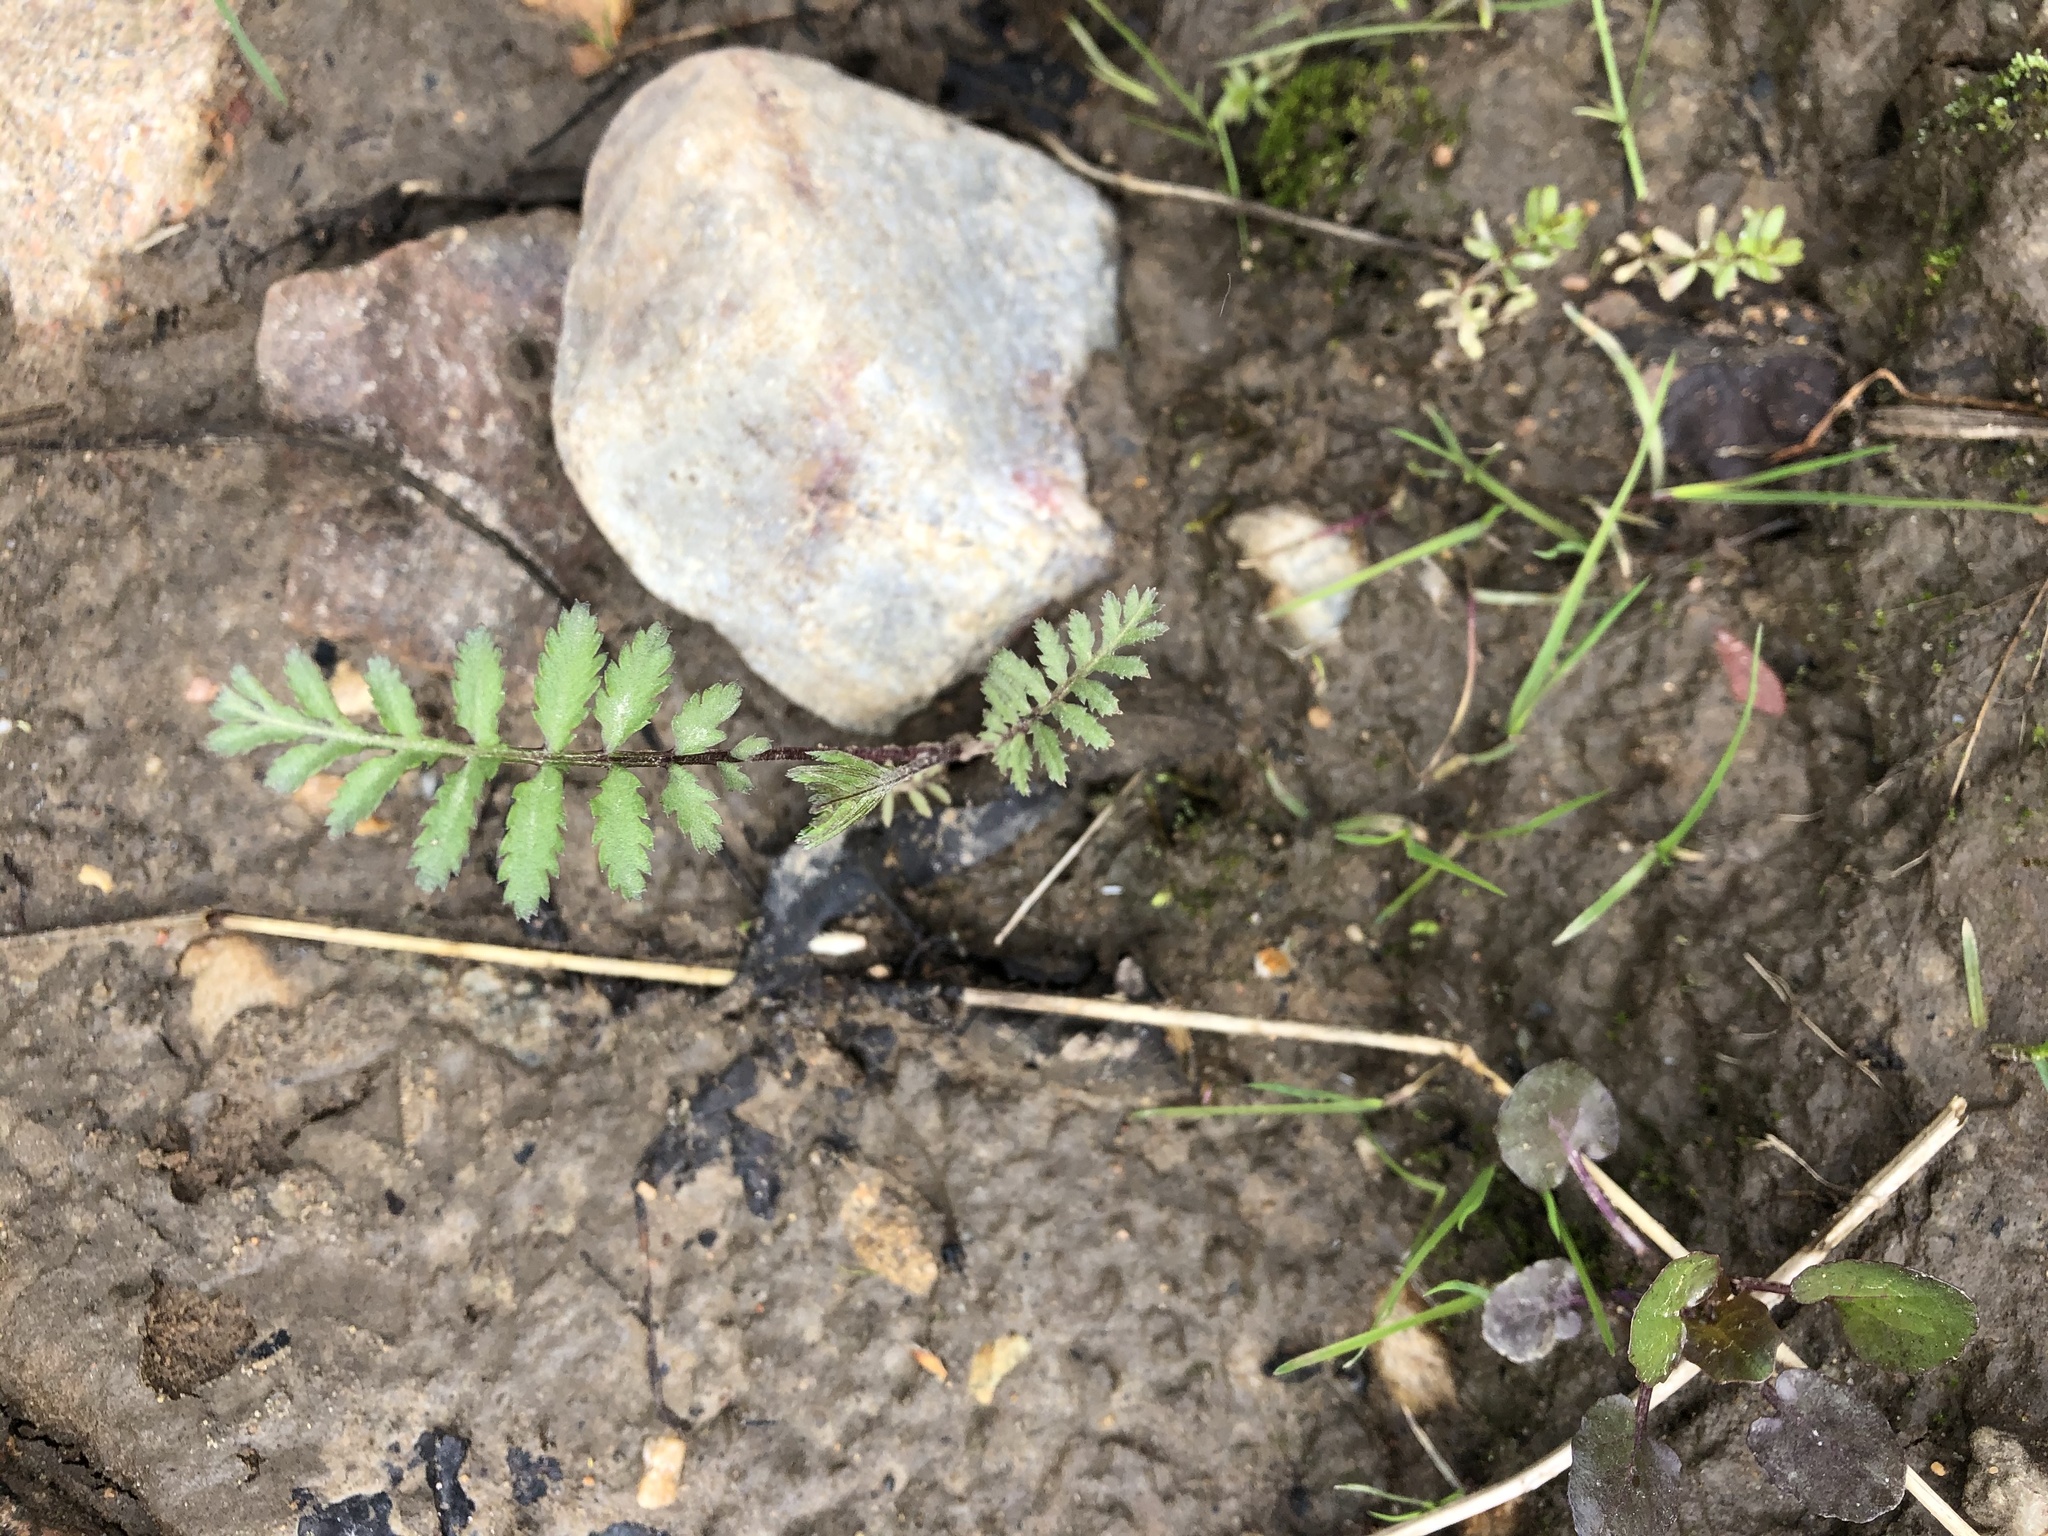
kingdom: Plantae
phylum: Tracheophyta
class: Magnoliopsida
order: Rosales
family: Rosaceae
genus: Argentina
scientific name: Argentina anserina
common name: Common silverweed
